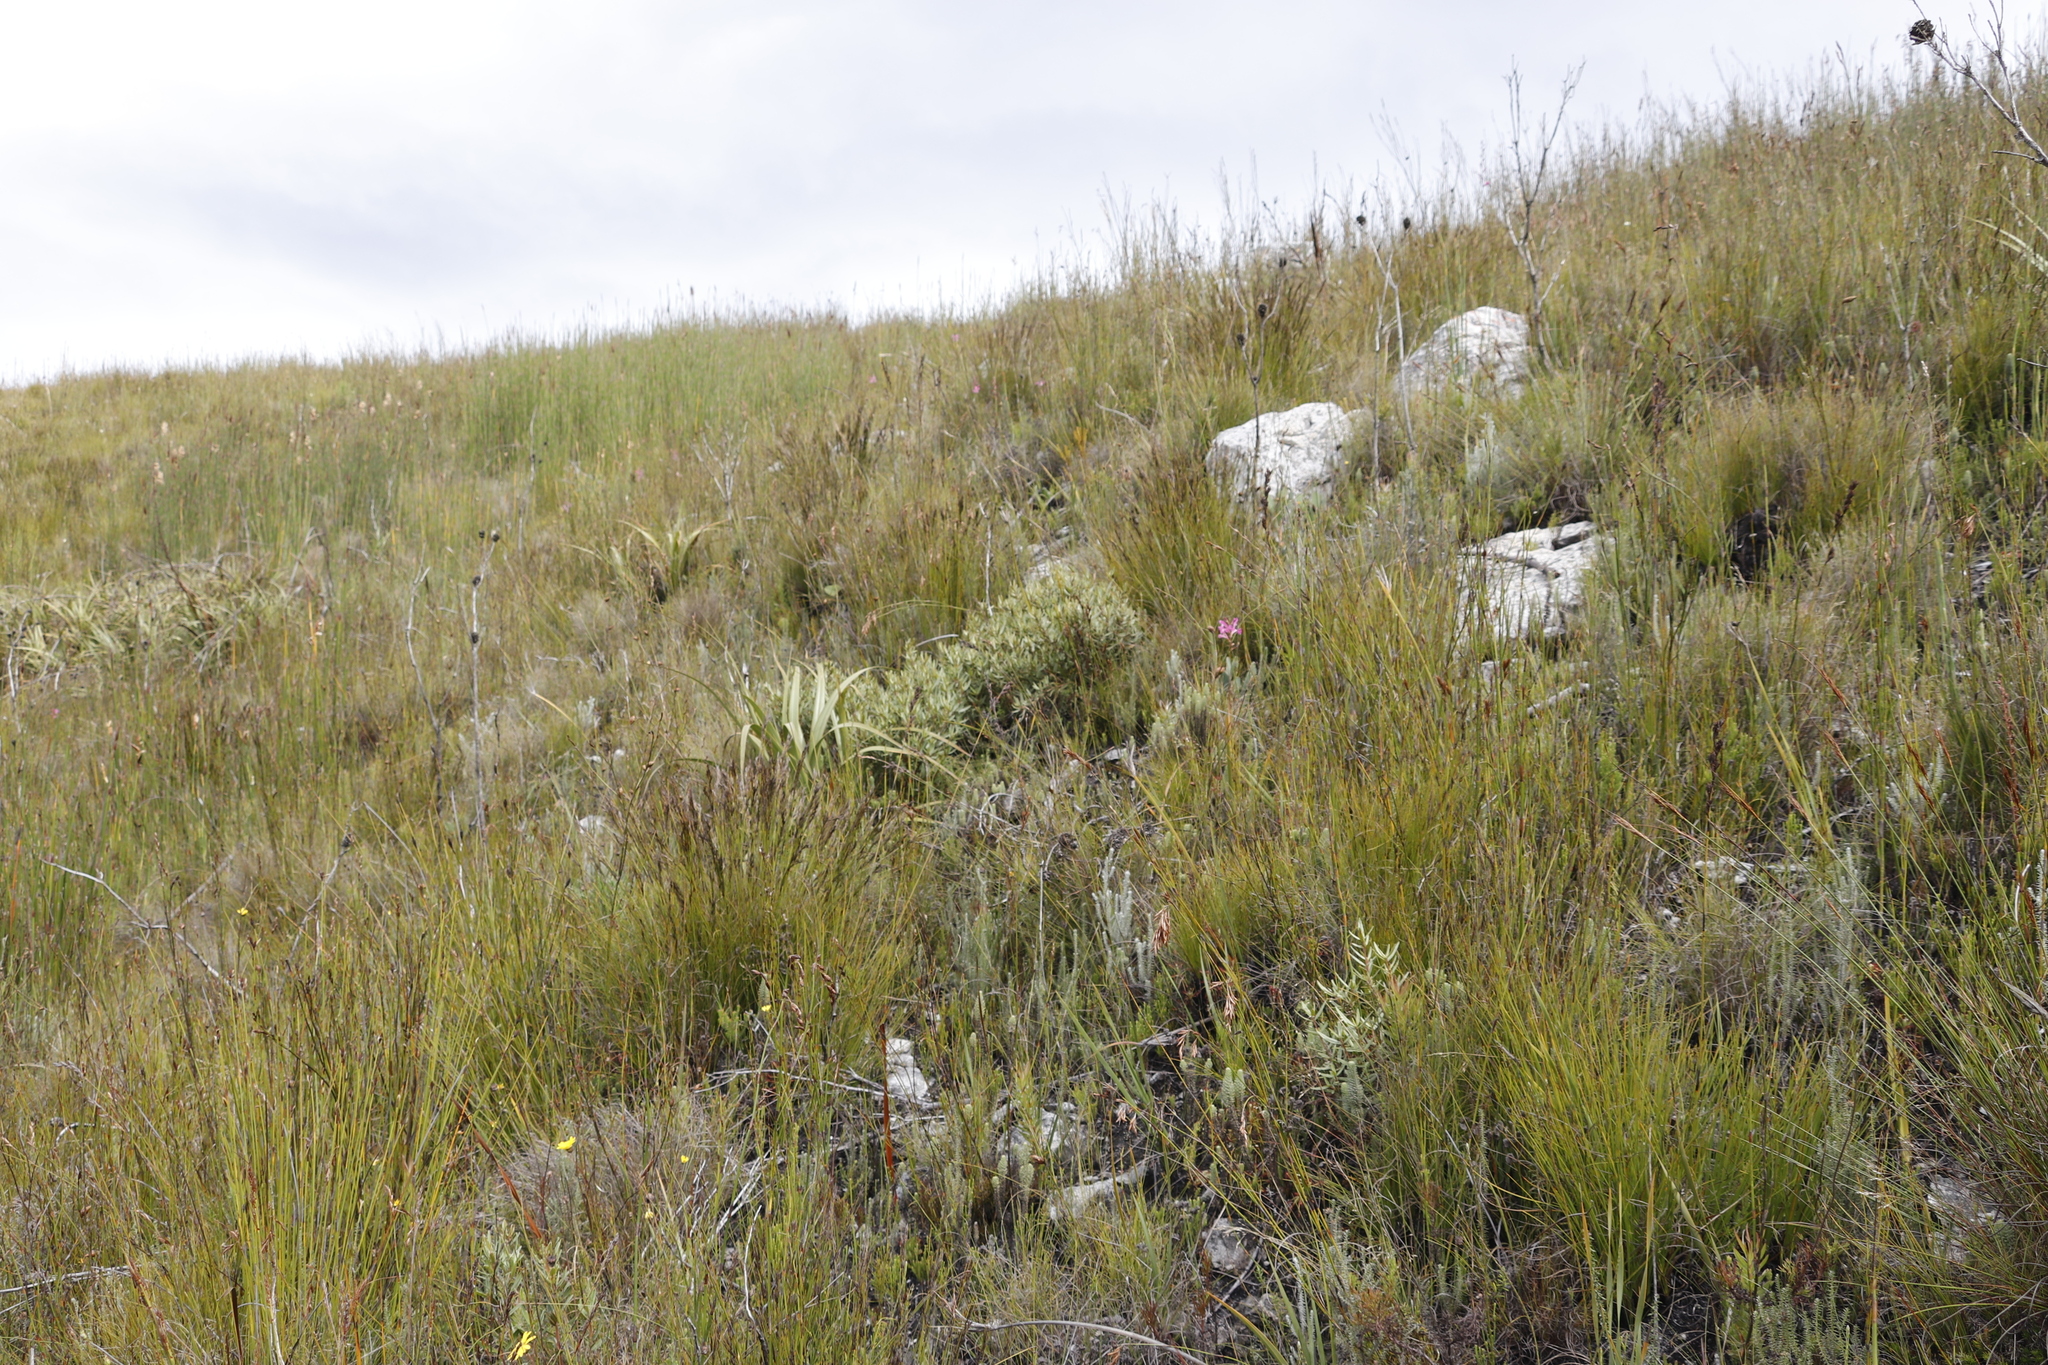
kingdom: Plantae
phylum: Tracheophyta
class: Magnoliopsida
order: Cornales
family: Grubbiaceae
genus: Grubbia
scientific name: Grubbia tomentosa
